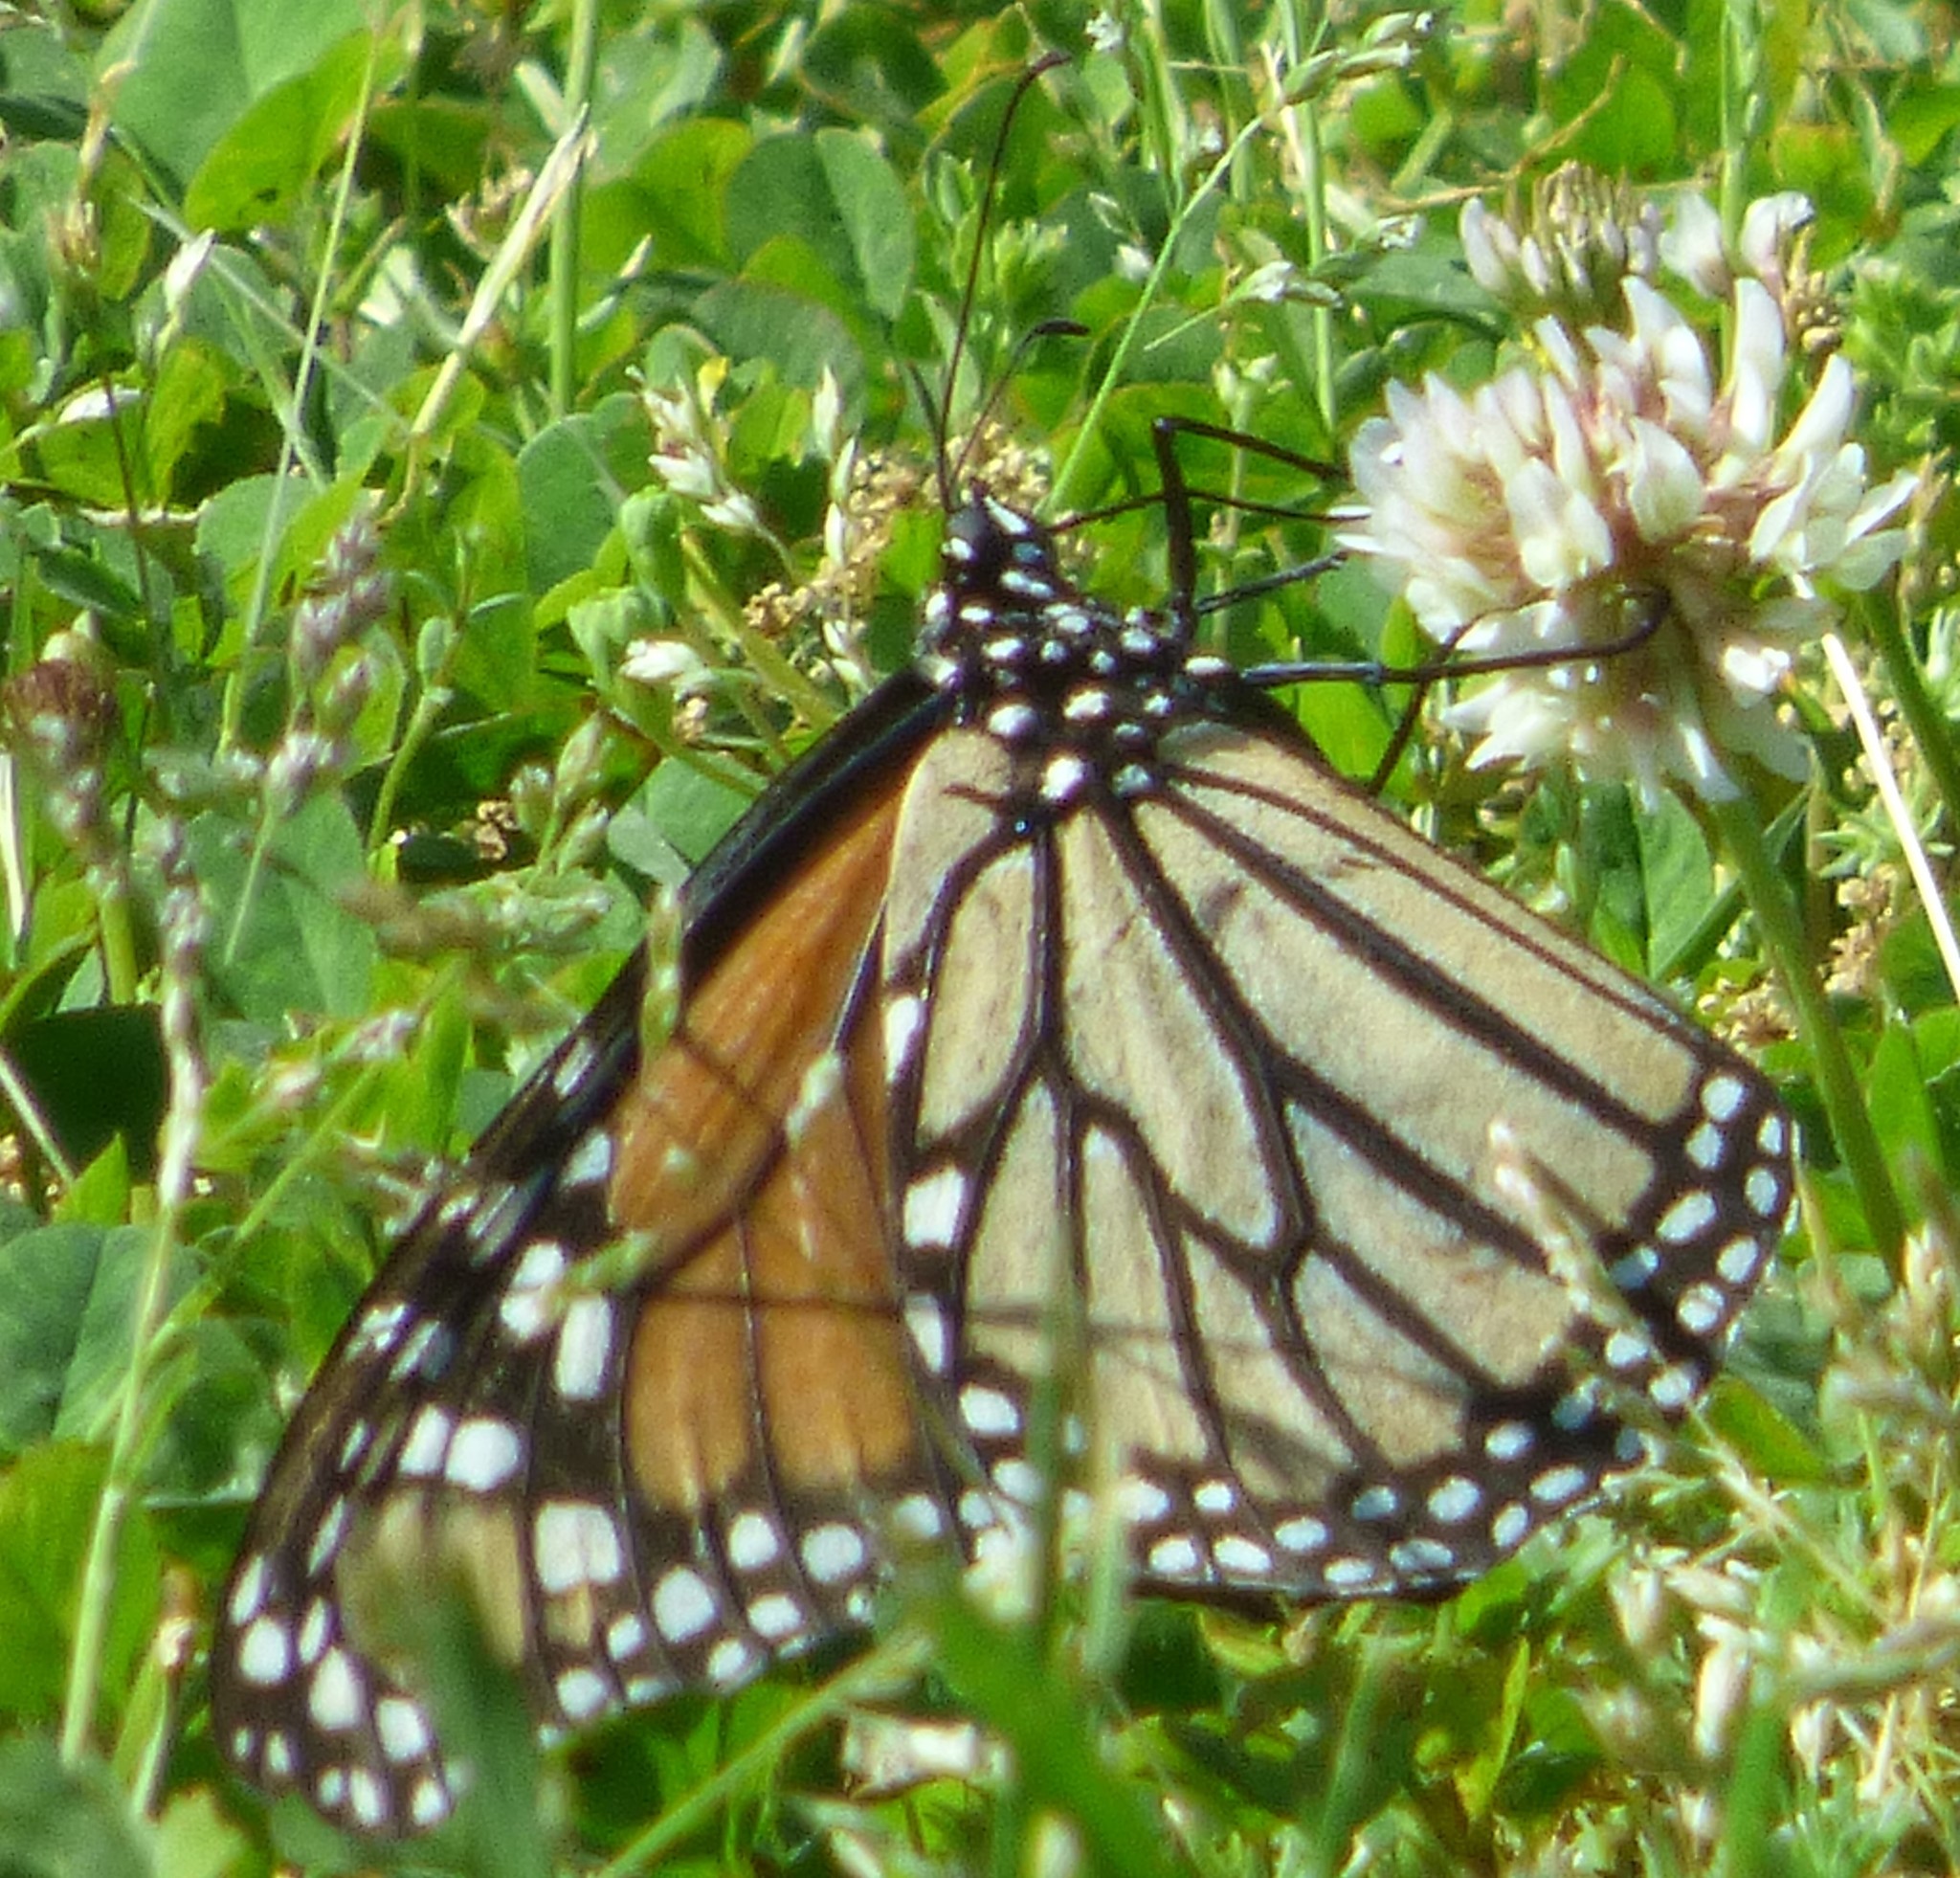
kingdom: Animalia
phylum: Arthropoda
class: Insecta
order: Lepidoptera
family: Nymphalidae
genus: Danaus
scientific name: Danaus plexippus
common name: Monarch
